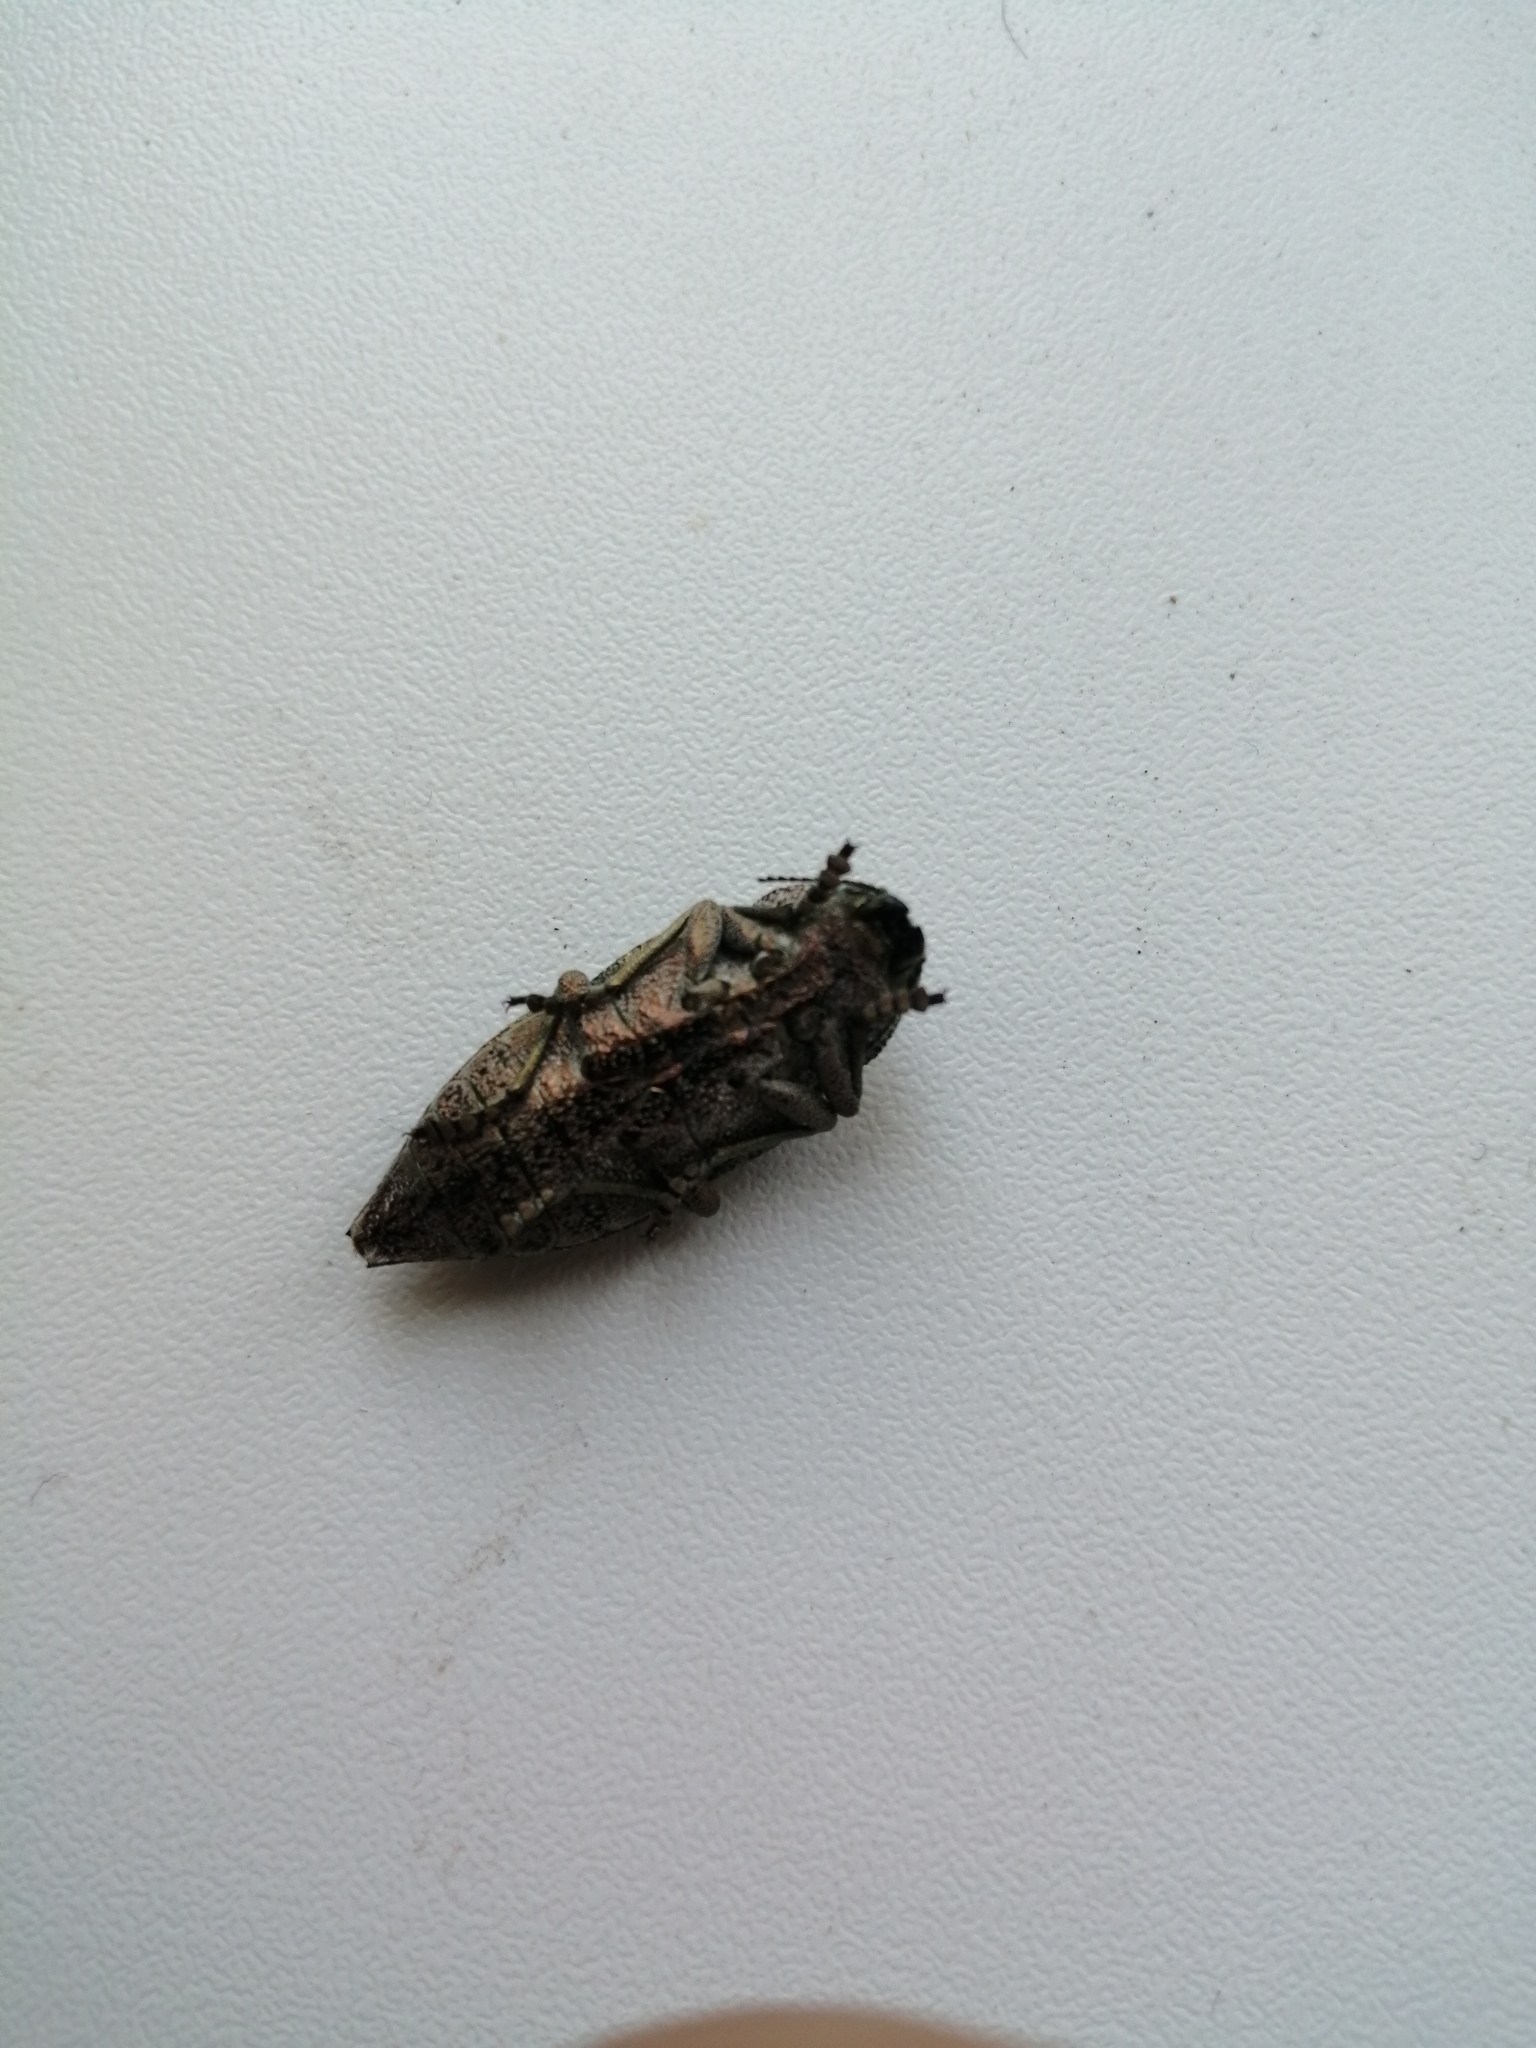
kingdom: Animalia
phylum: Arthropoda
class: Insecta
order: Coleoptera
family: Buprestidae
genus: Dicerca
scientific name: Dicerca aenea
